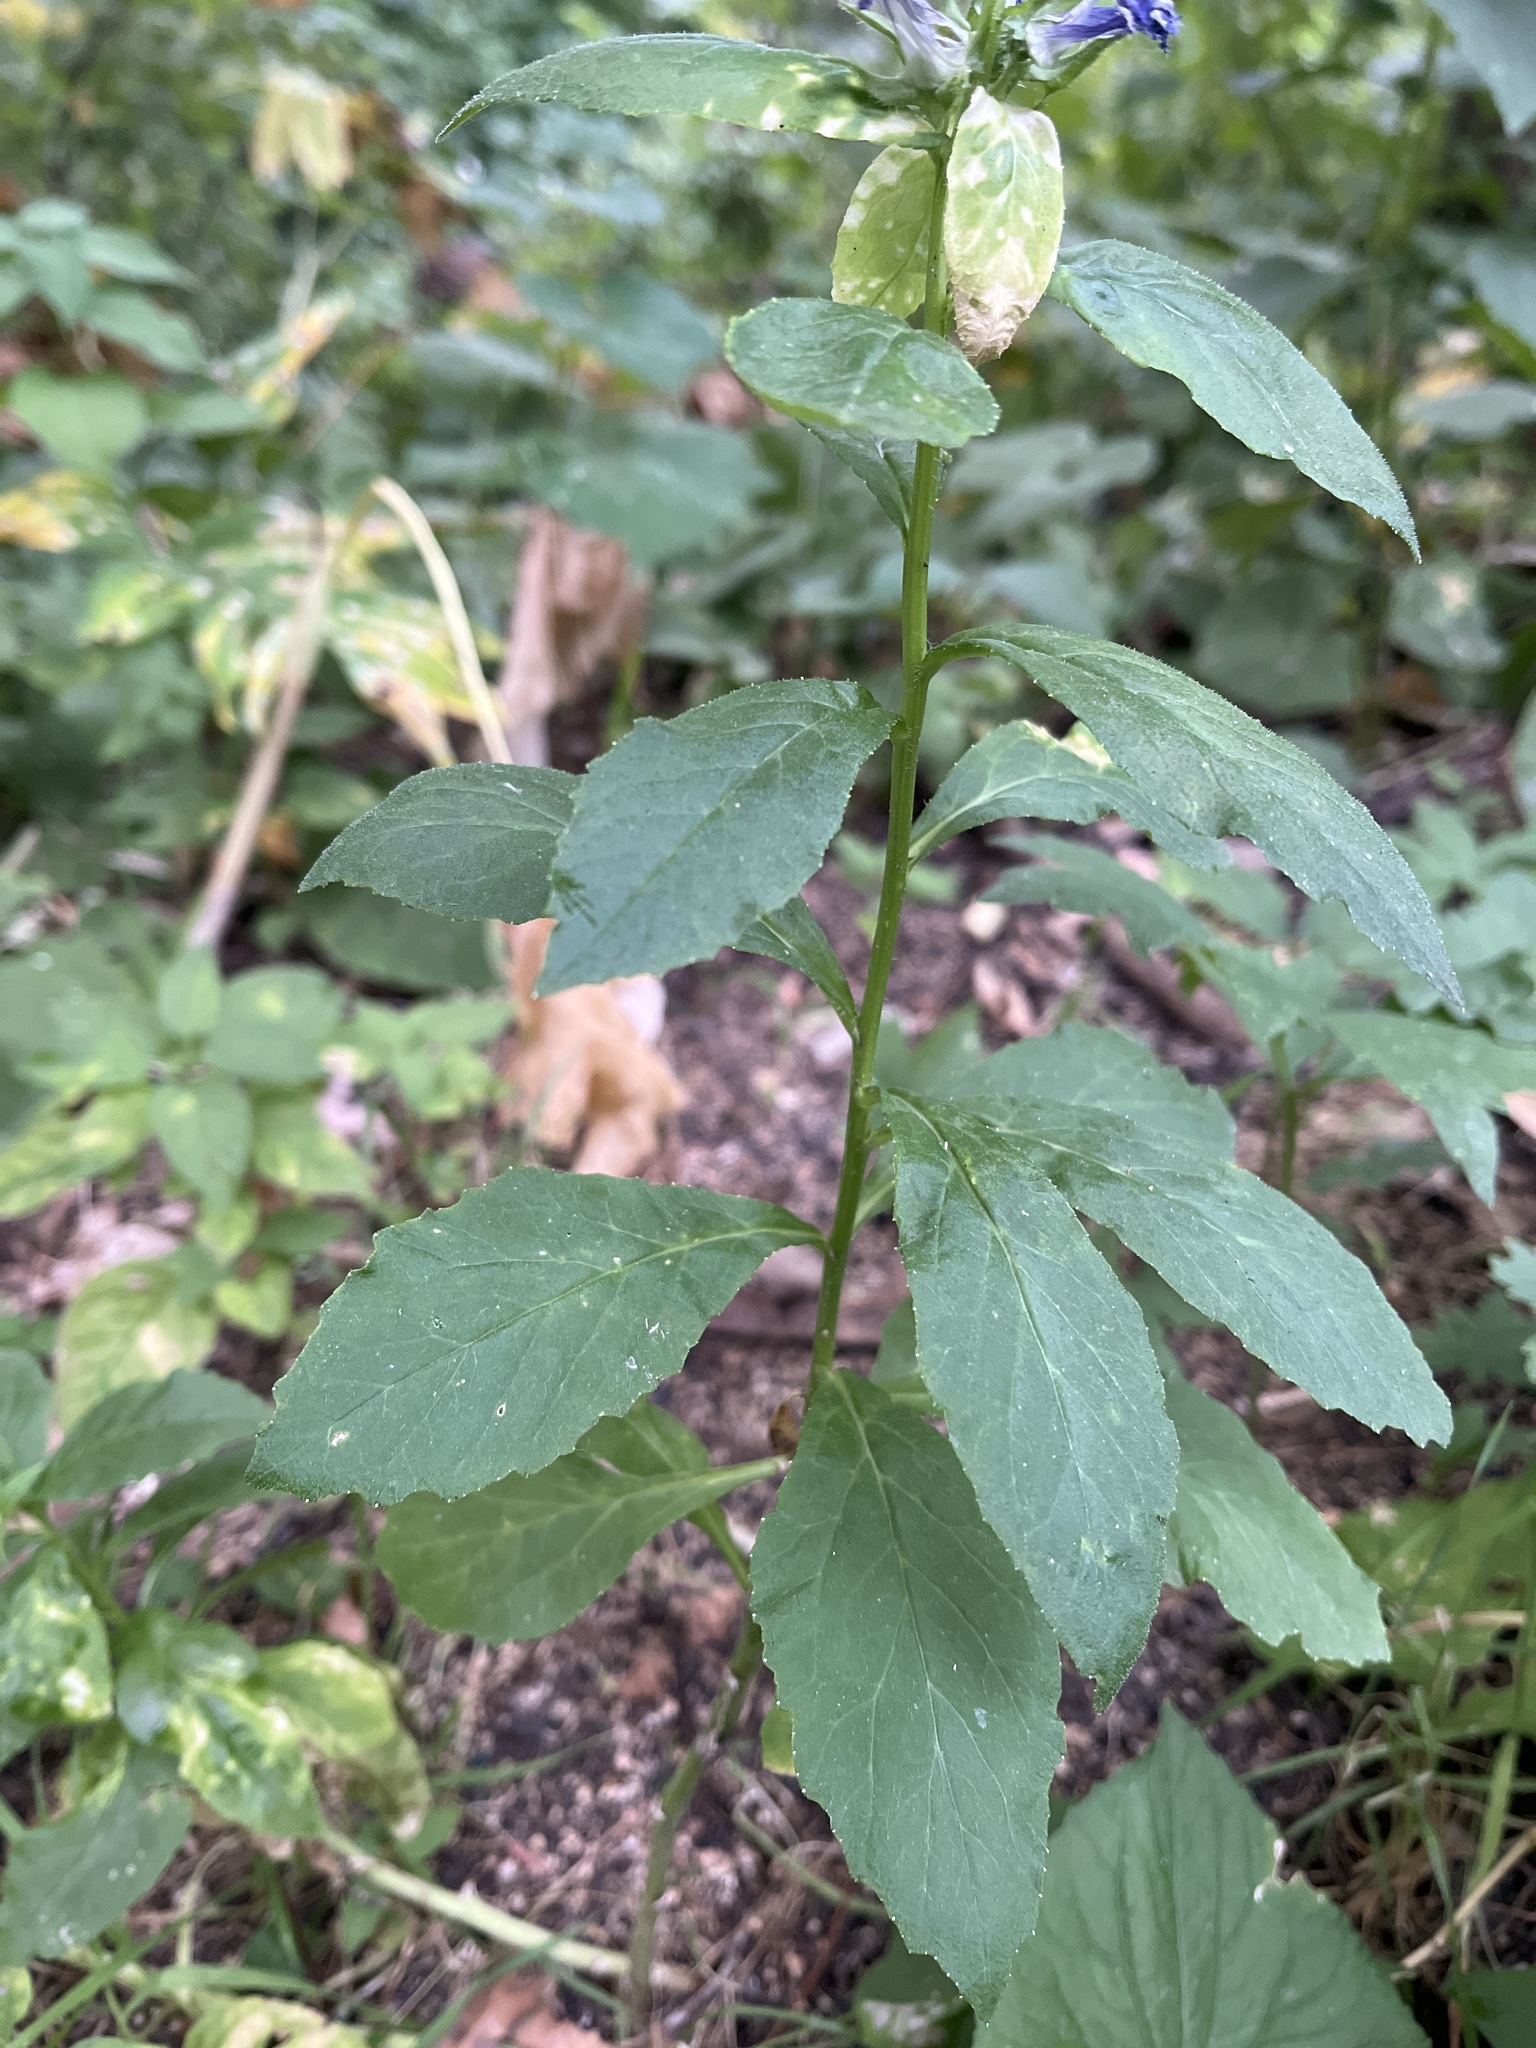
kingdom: Plantae
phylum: Tracheophyta
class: Magnoliopsida
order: Asterales
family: Campanulaceae
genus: Lobelia
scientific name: Lobelia siphilitica
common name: Great lobelia
